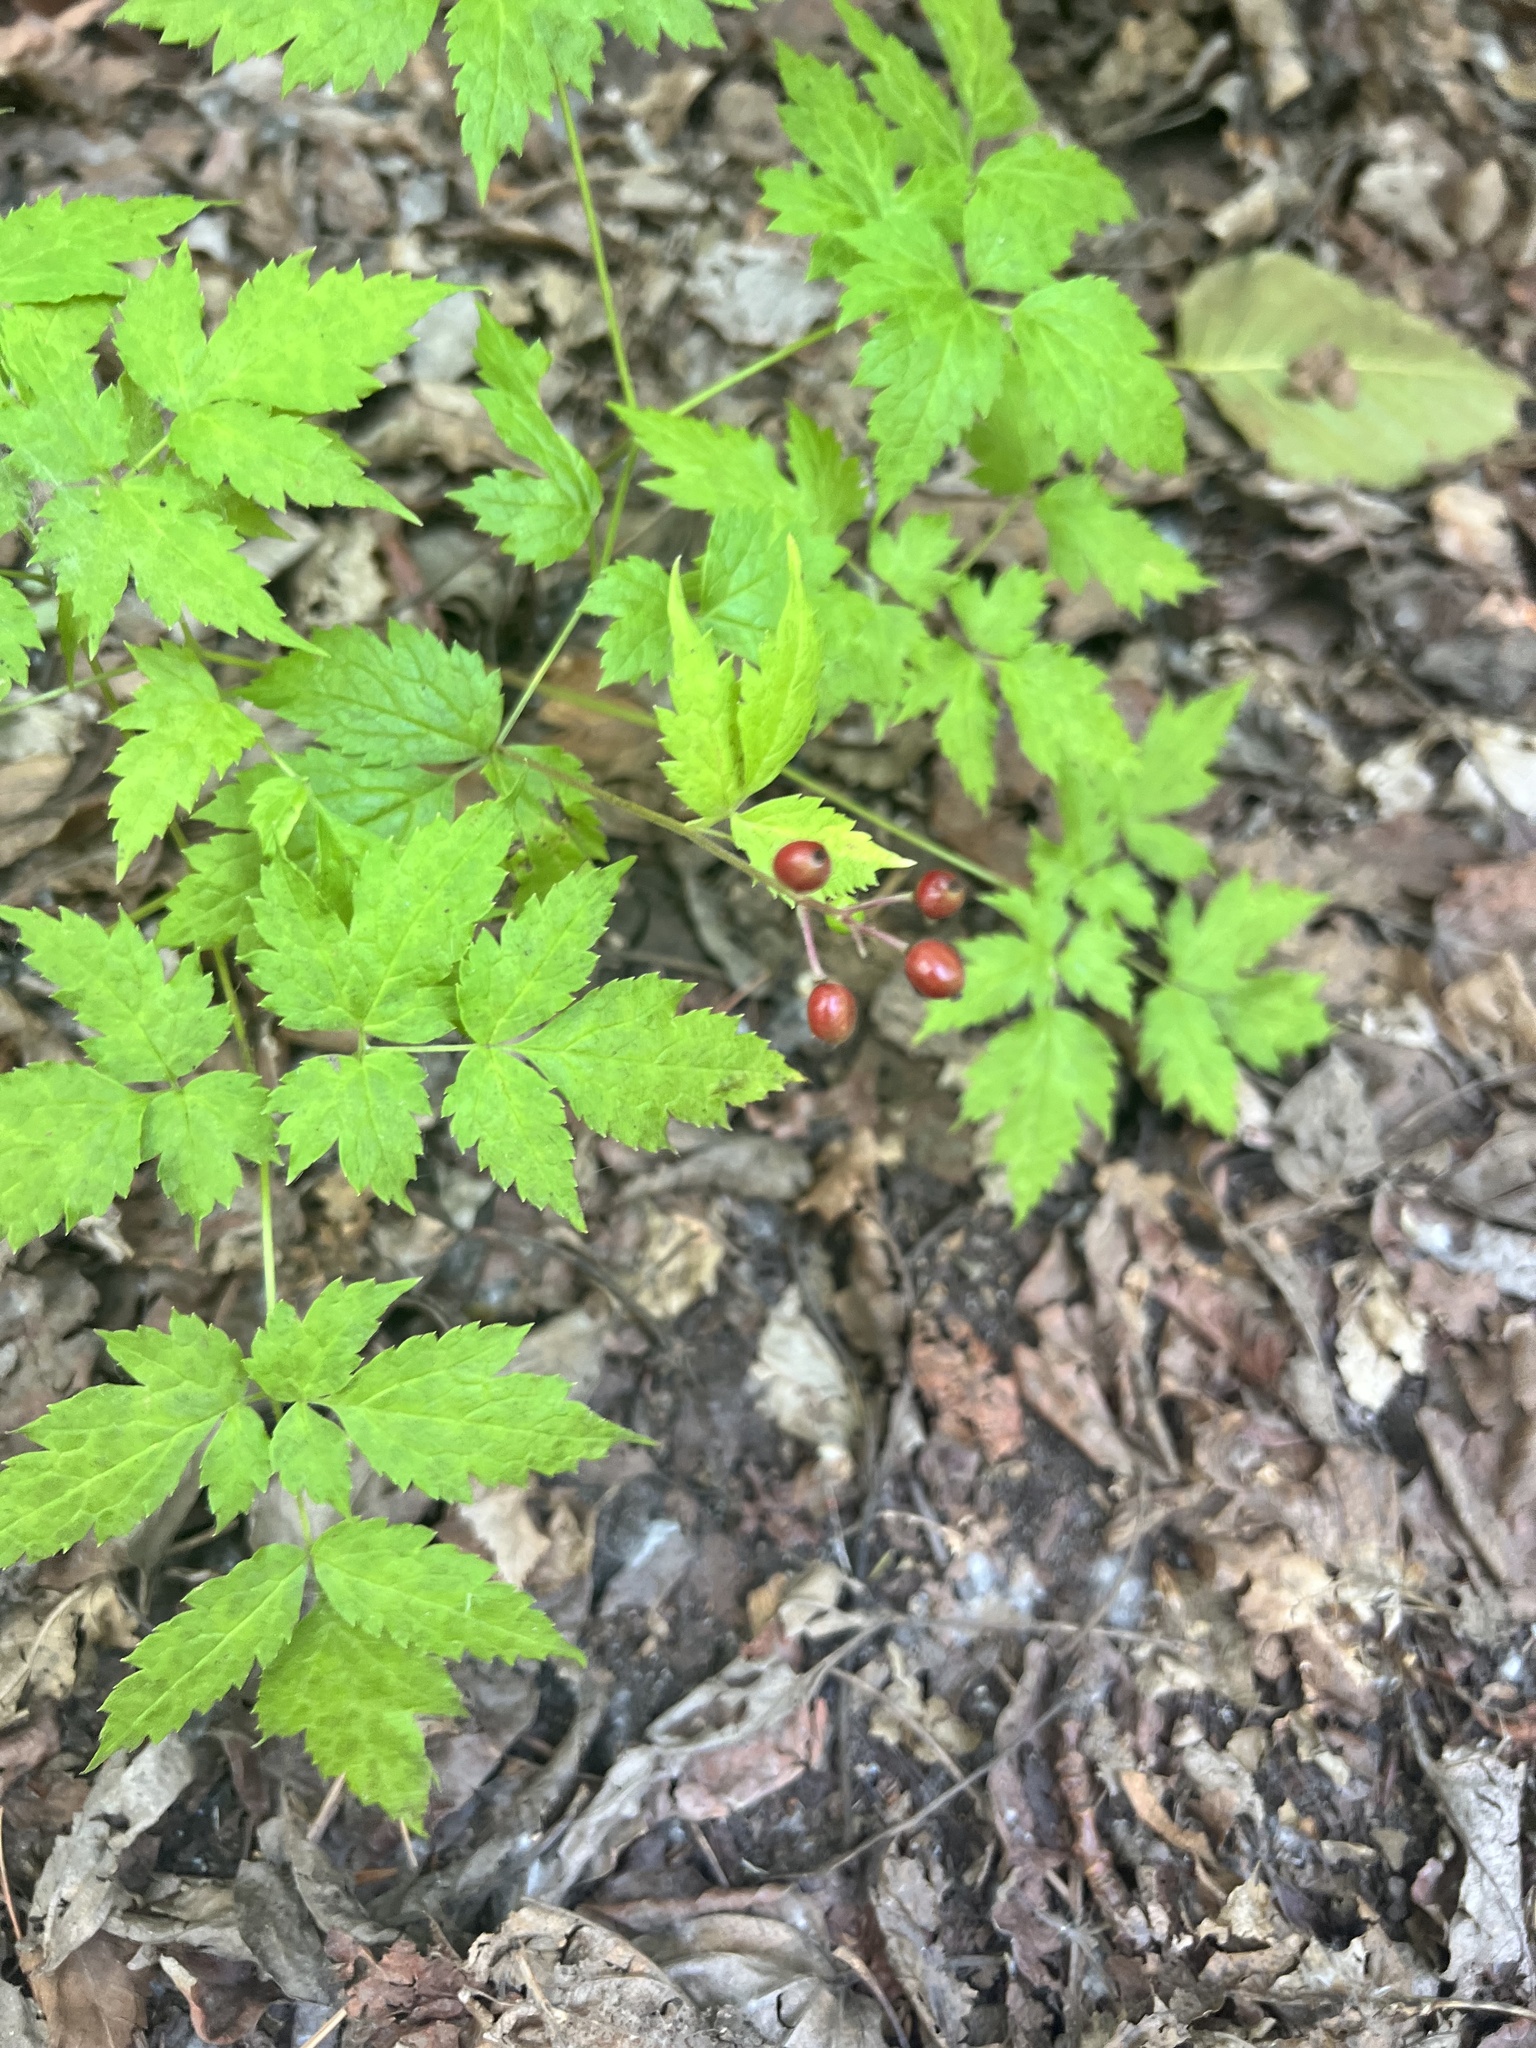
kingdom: Plantae
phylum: Tracheophyta
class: Magnoliopsida
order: Ranunculales
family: Ranunculaceae
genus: Actaea
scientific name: Actaea rubra
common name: Red baneberry
